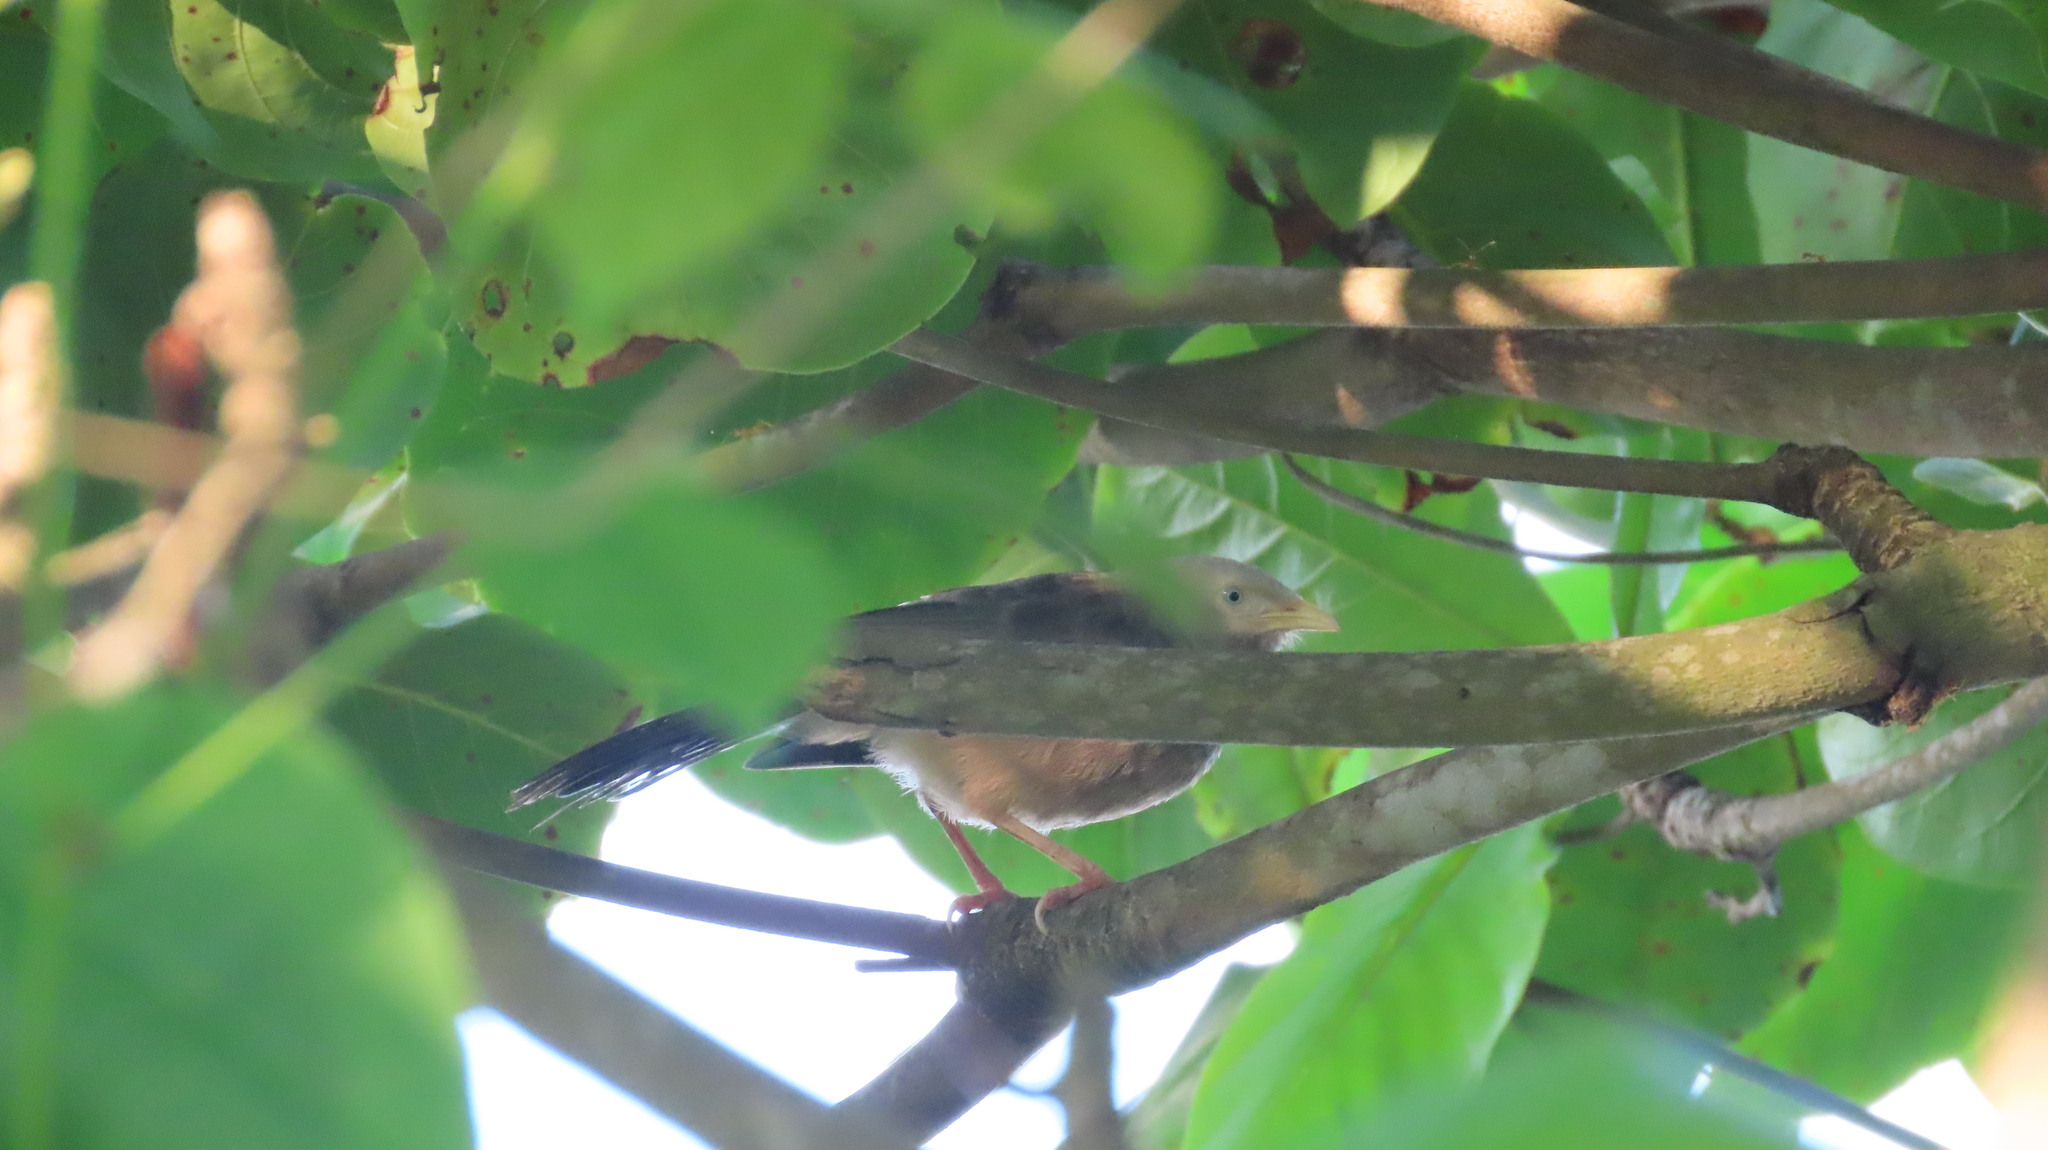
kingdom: Animalia
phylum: Chordata
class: Aves
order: Passeriformes
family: Leiothrichidae
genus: Turdoides
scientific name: Turdoides affinis
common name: Yellow-billed babbler
